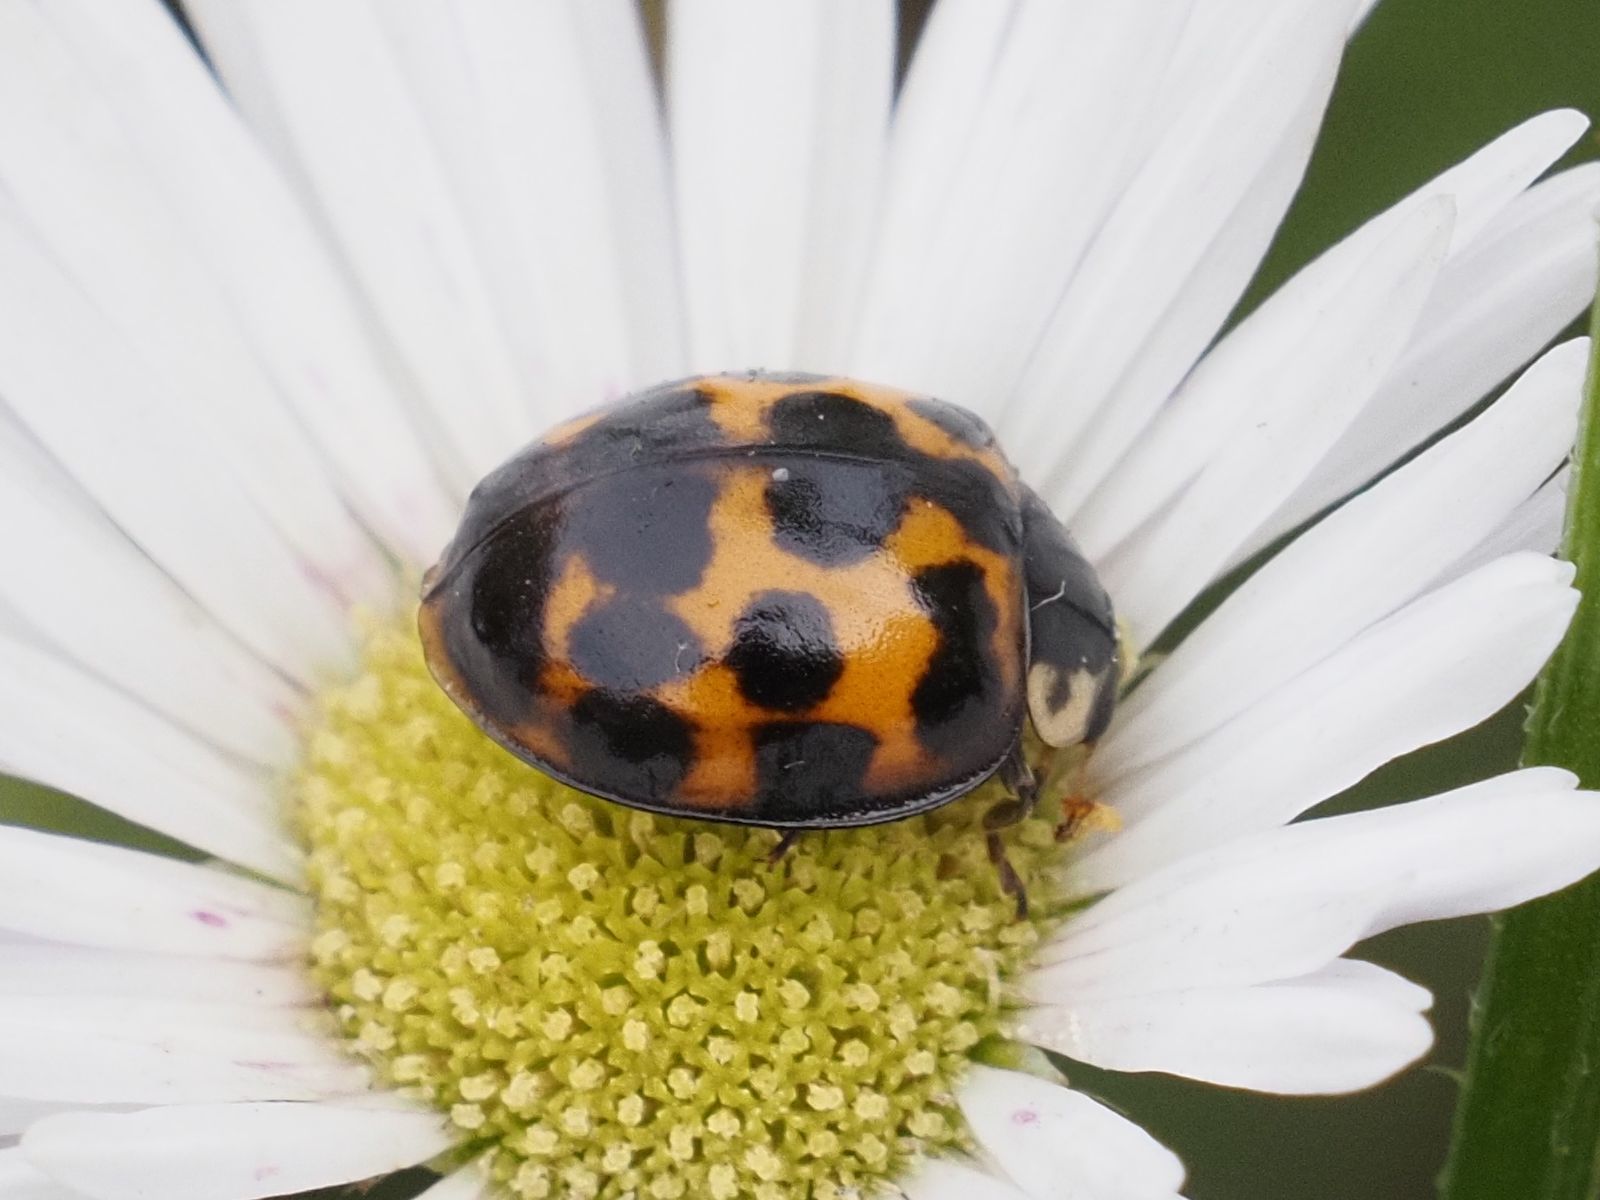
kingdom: Animalia
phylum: Arthropoda
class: Insecta
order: Coleoptera
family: Coccinellidae
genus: Harmonia
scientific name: Harmonia axyridis
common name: Harlequin ladybird
